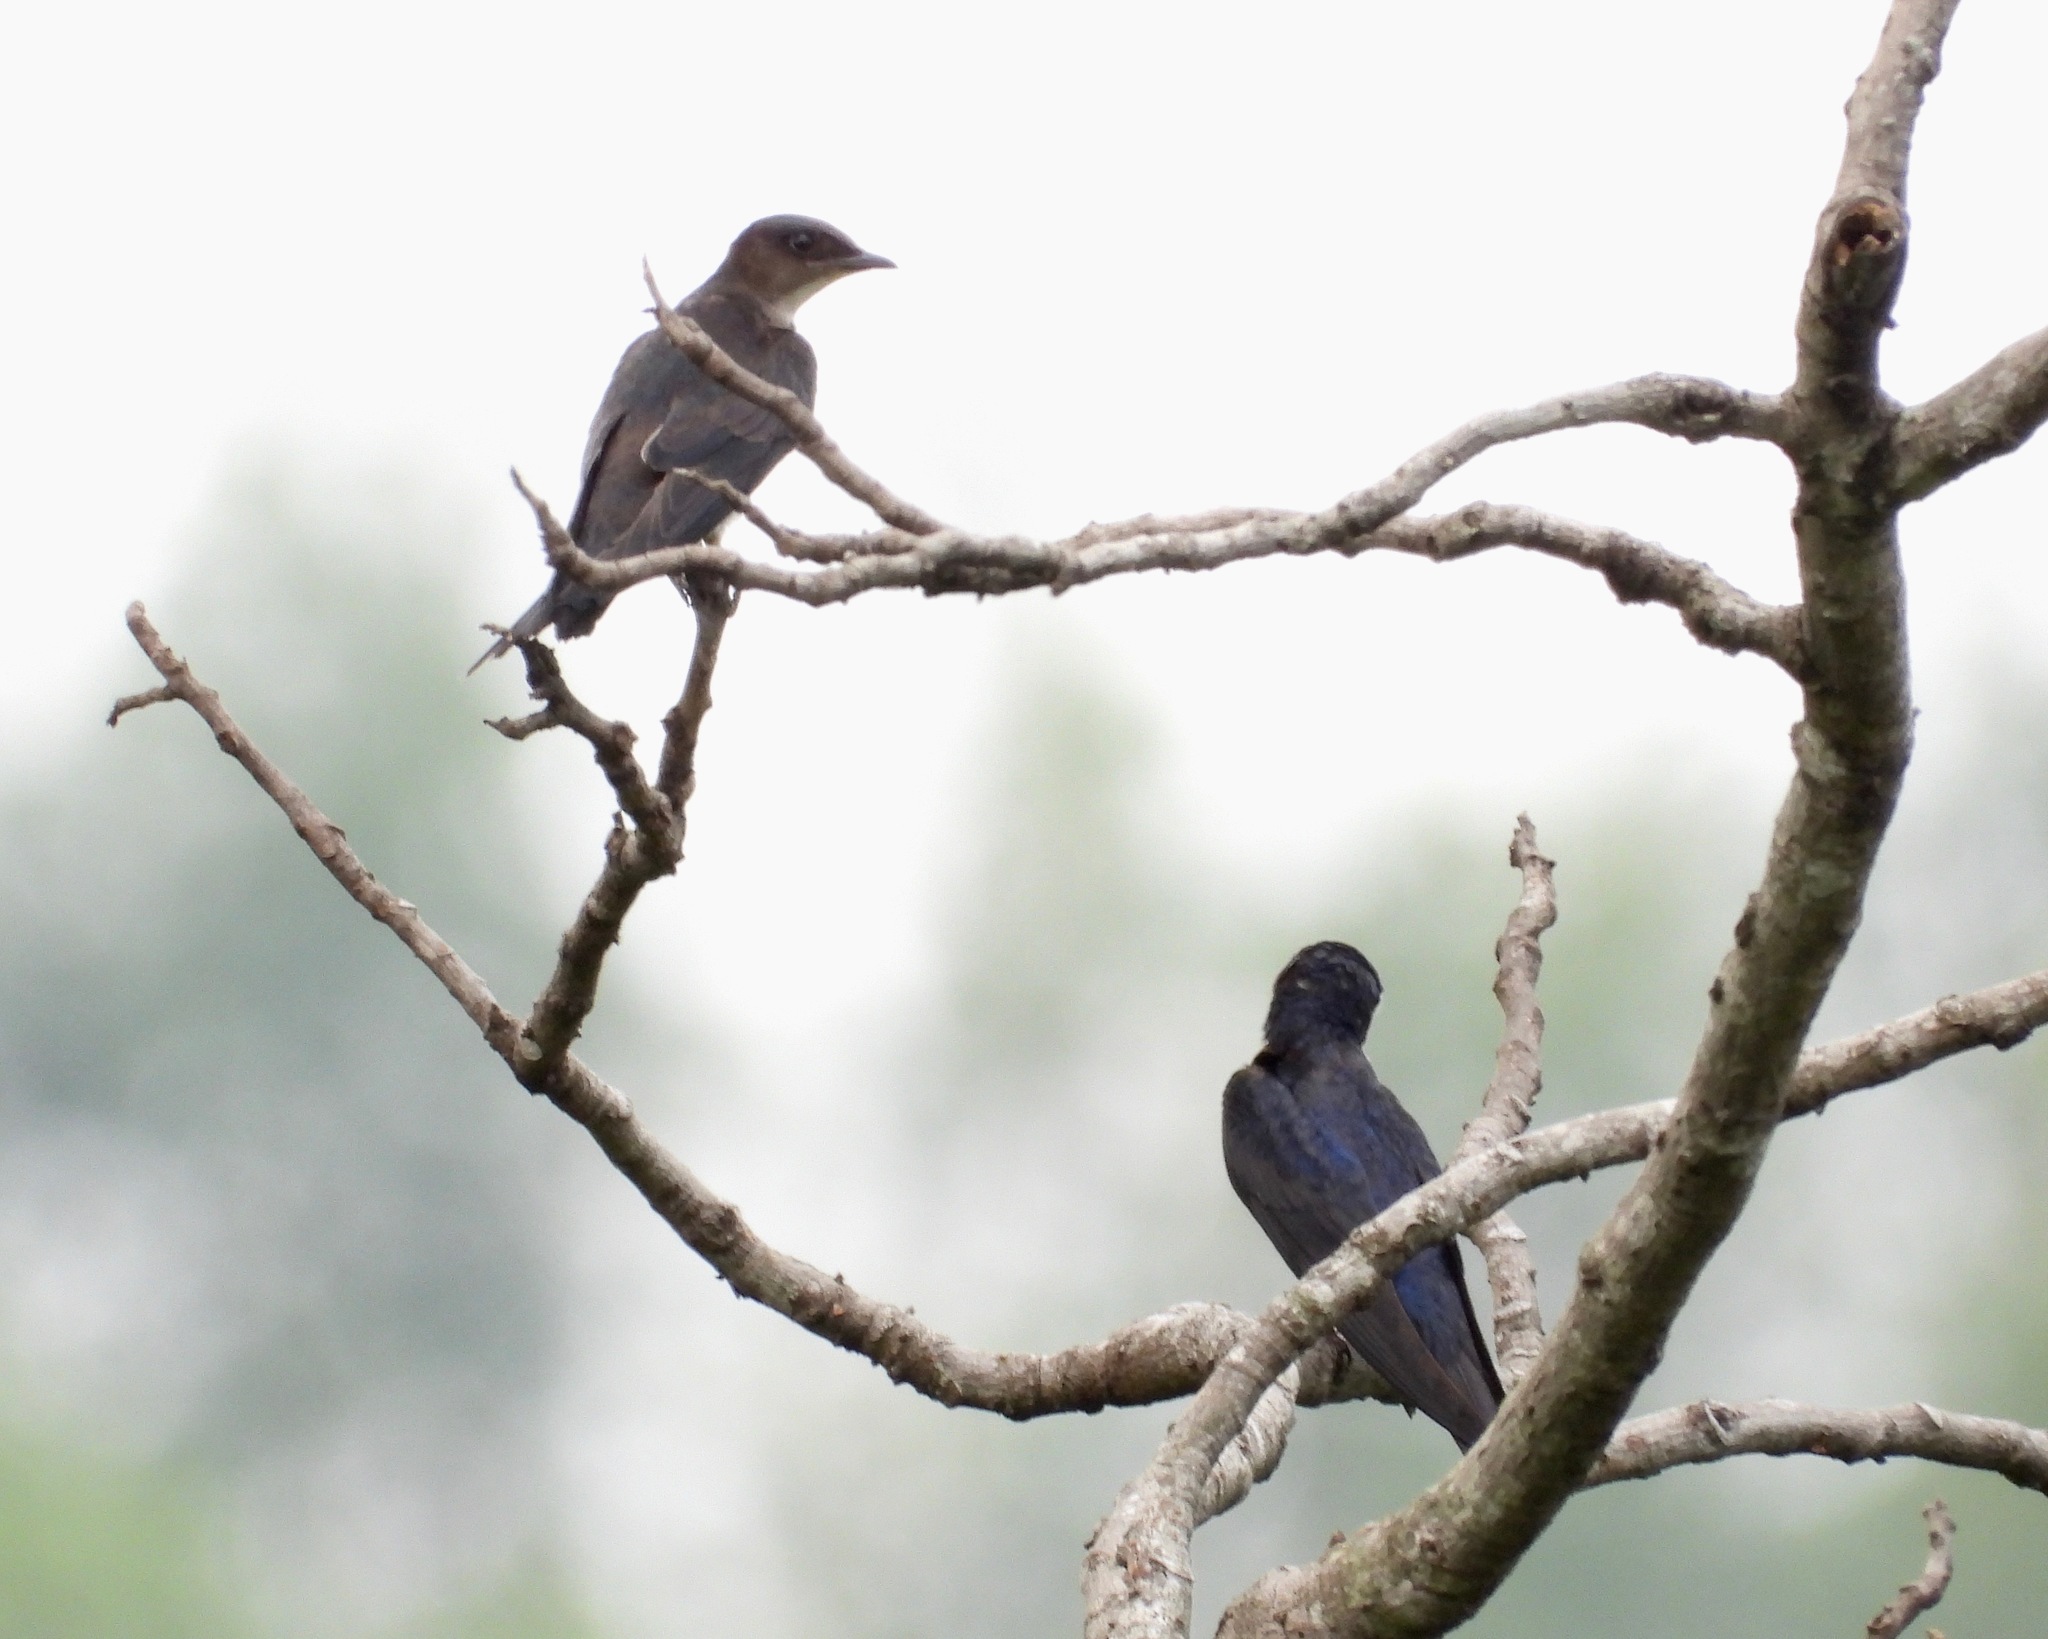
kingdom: Animalia
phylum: Chordata
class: Aves
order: Passeriformes
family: Hirundinidae
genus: Progne
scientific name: Progne chalybea
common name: Grey-breasted martin
